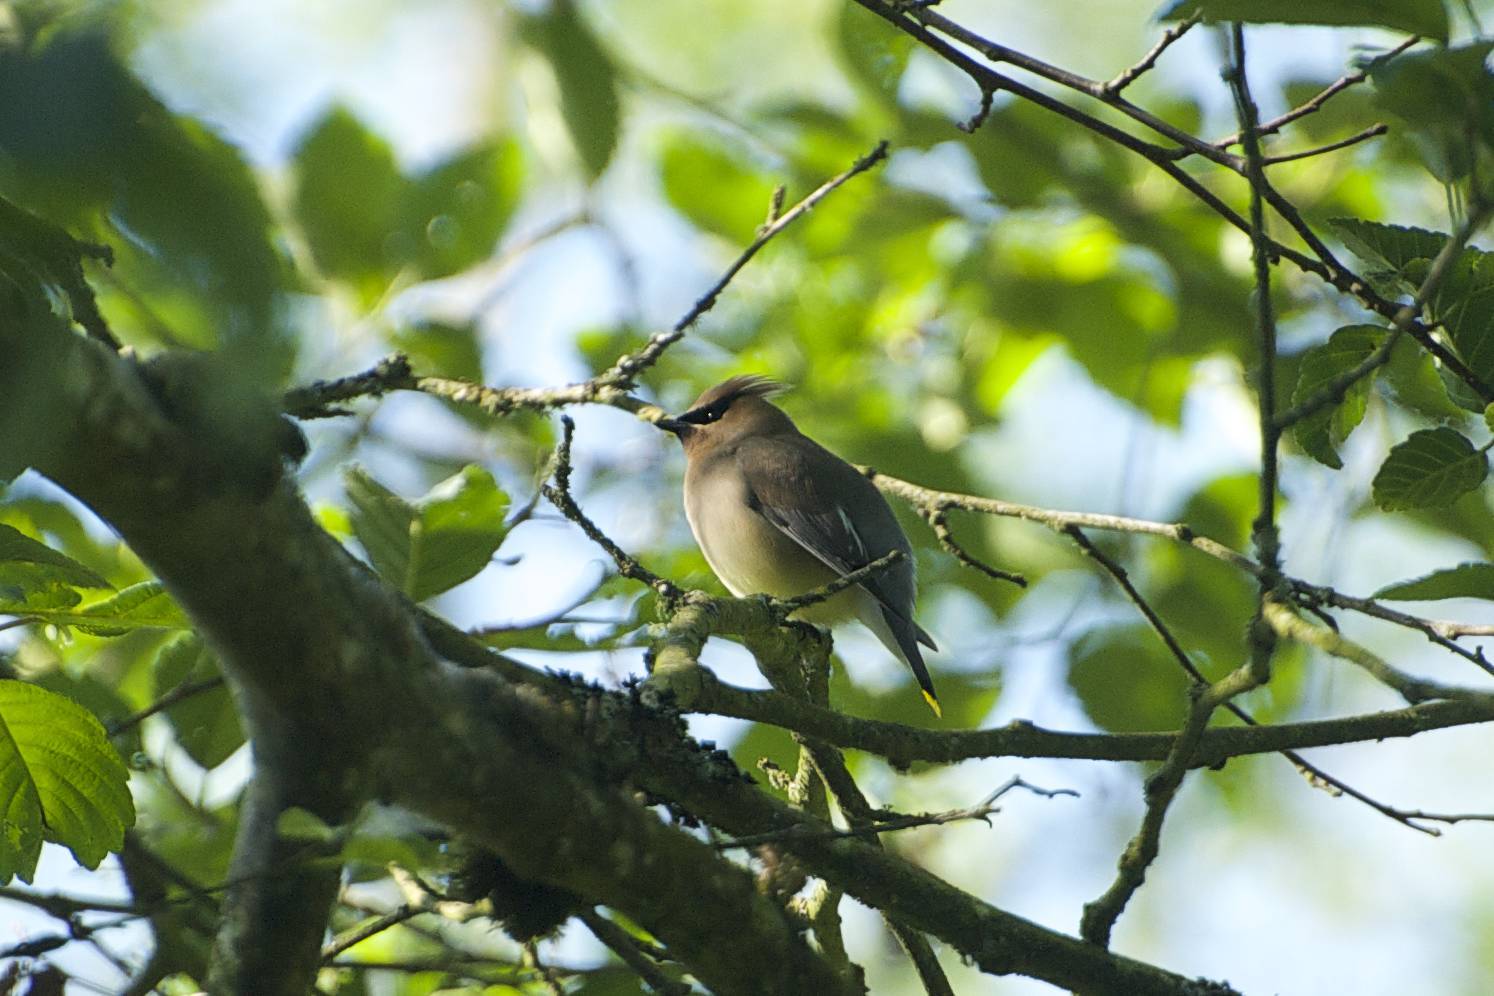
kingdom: Animalia
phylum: Chordata
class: Aves
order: Passeriformes
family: Bombycillidae
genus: Bombycilla
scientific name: Bombycilla cedrorum
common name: Cedar waxwing
